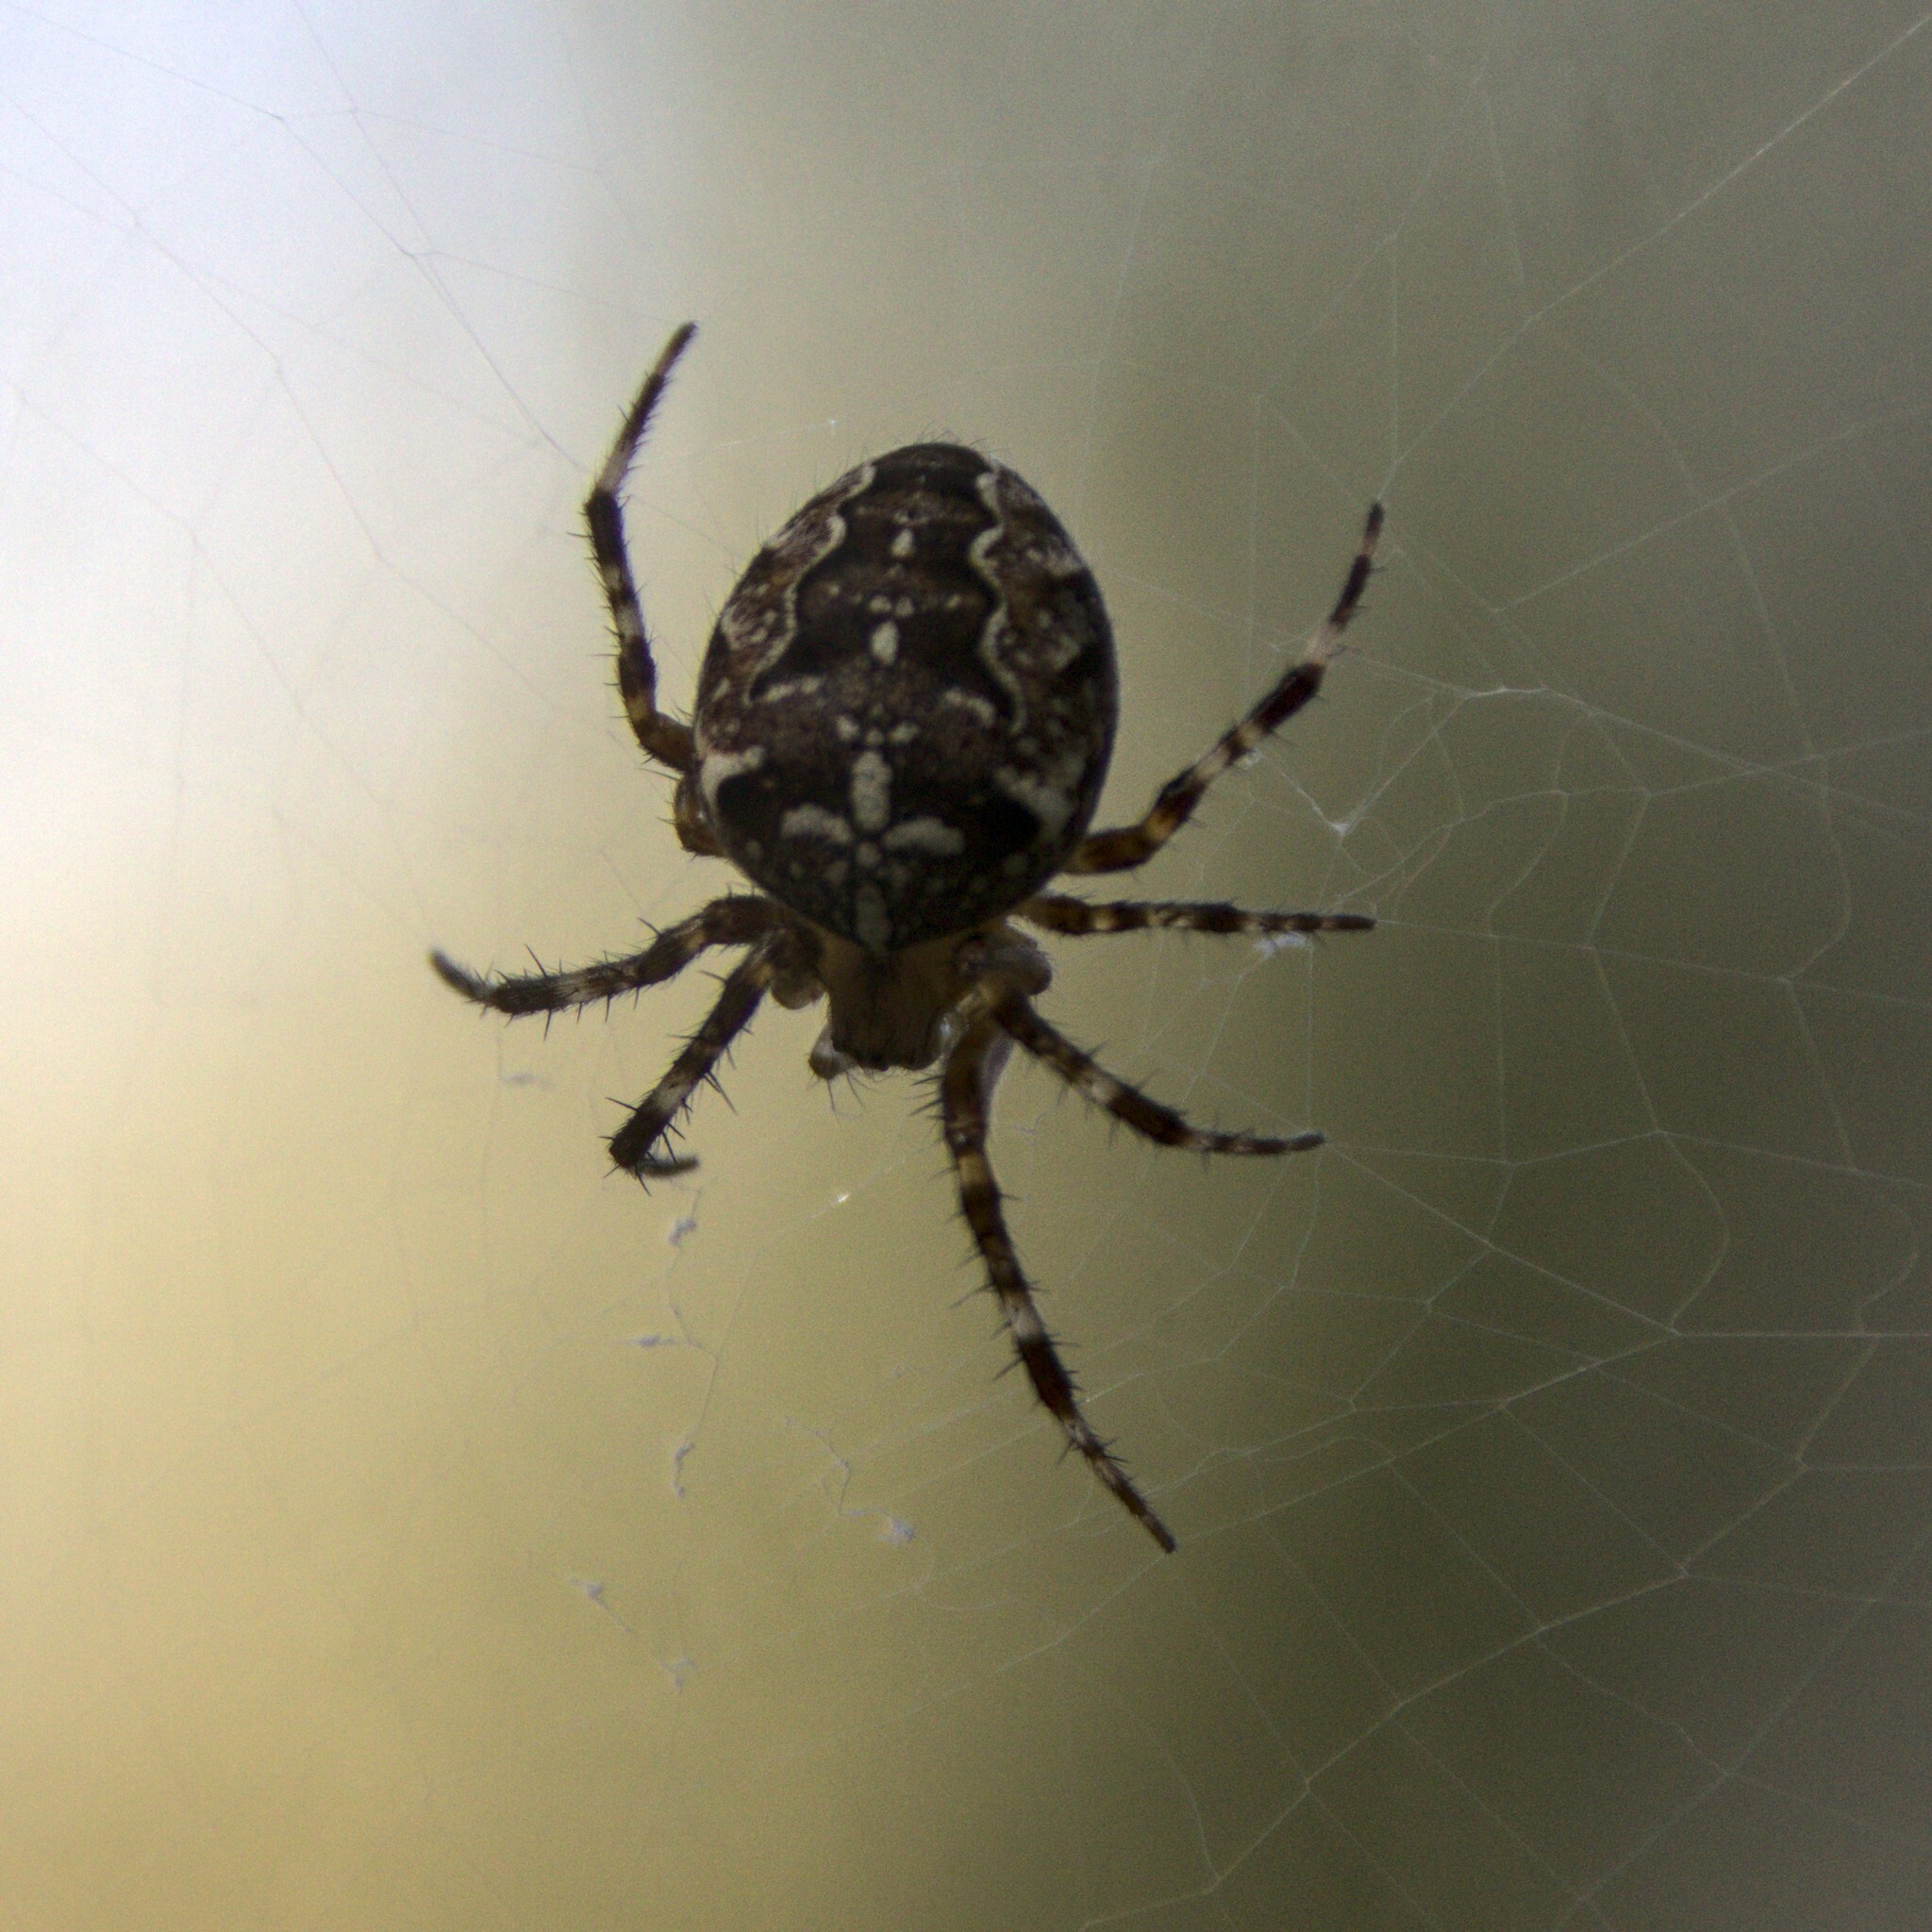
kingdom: Animalia
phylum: Arthropoda
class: Arachnida
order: Araneae
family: Araneidae
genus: Araneus
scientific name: Araneus diadematus
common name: Cross orbweaver
